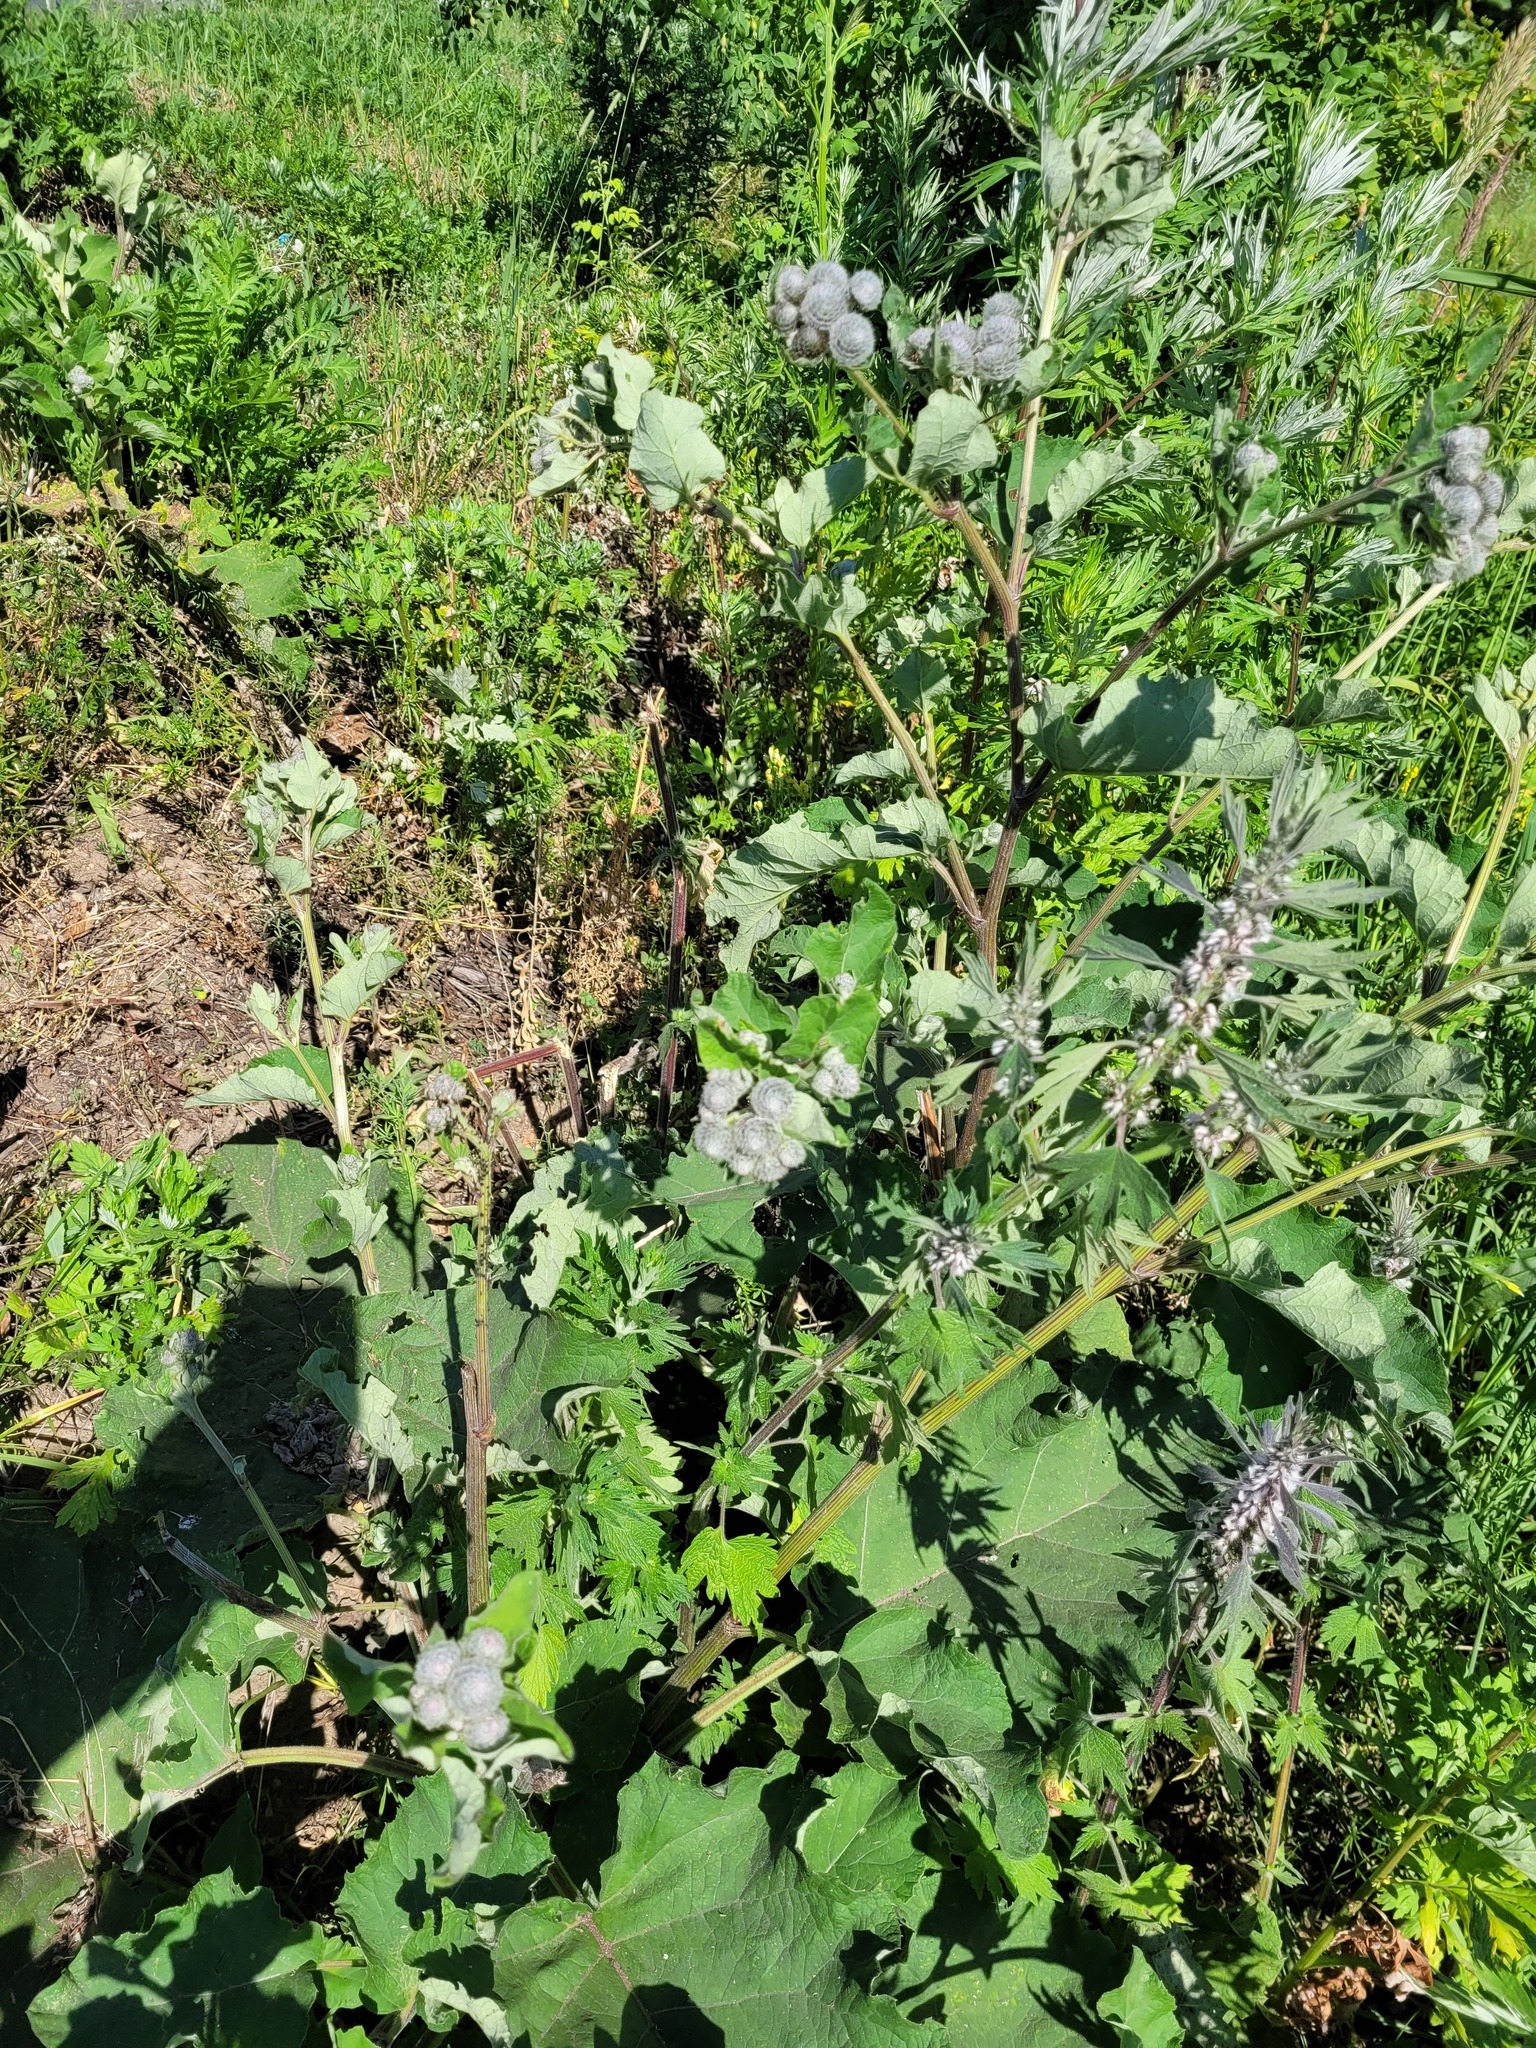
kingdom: Plantae
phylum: Tracheophyta
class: Magnoliopsida
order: Asterales
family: Asteraceae
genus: Arctium
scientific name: Arctium tomentosum
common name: Woolly burdock
